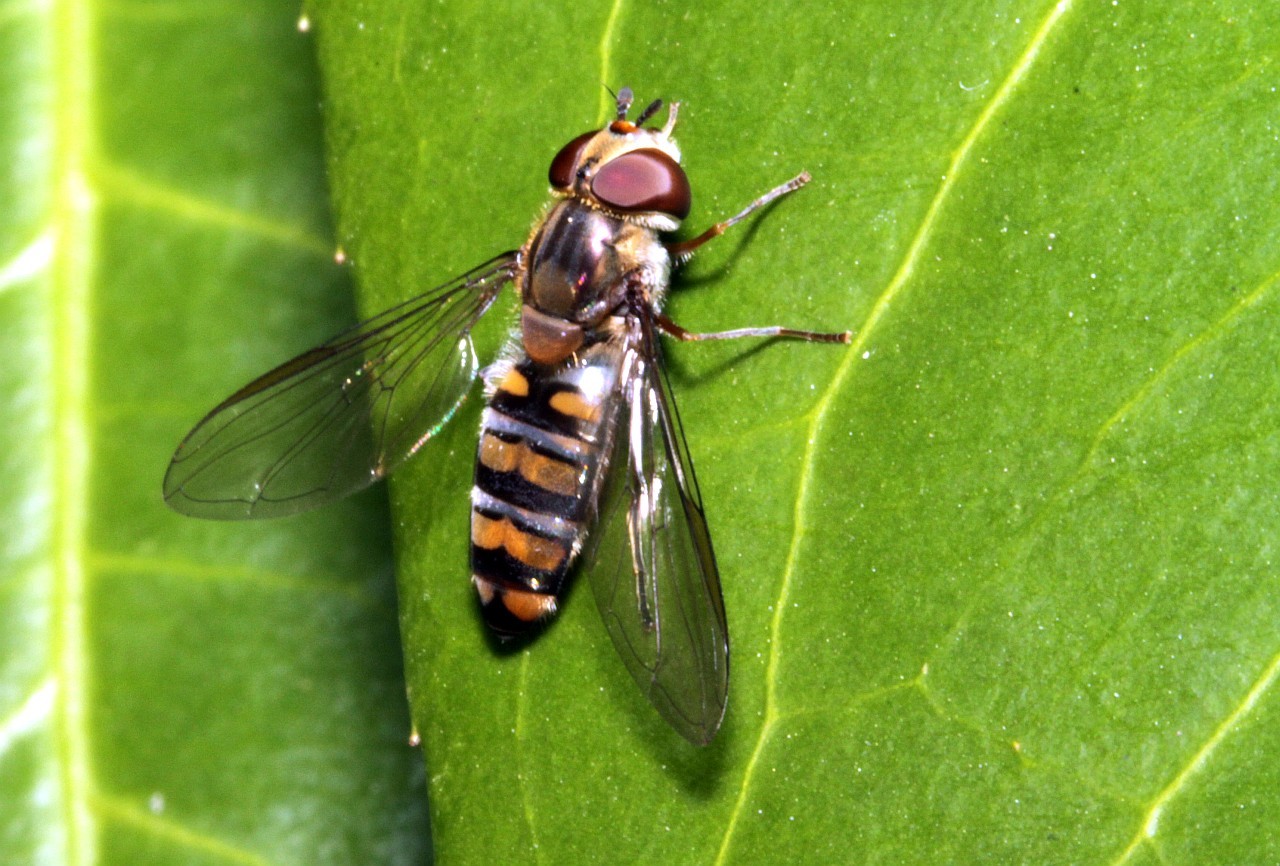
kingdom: Animalia
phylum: Arthropoda
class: Insecta
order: Diptera
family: Syrphidae
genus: Episyrphus
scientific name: Episyrphus balteatus
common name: Marmalade hoverfly
